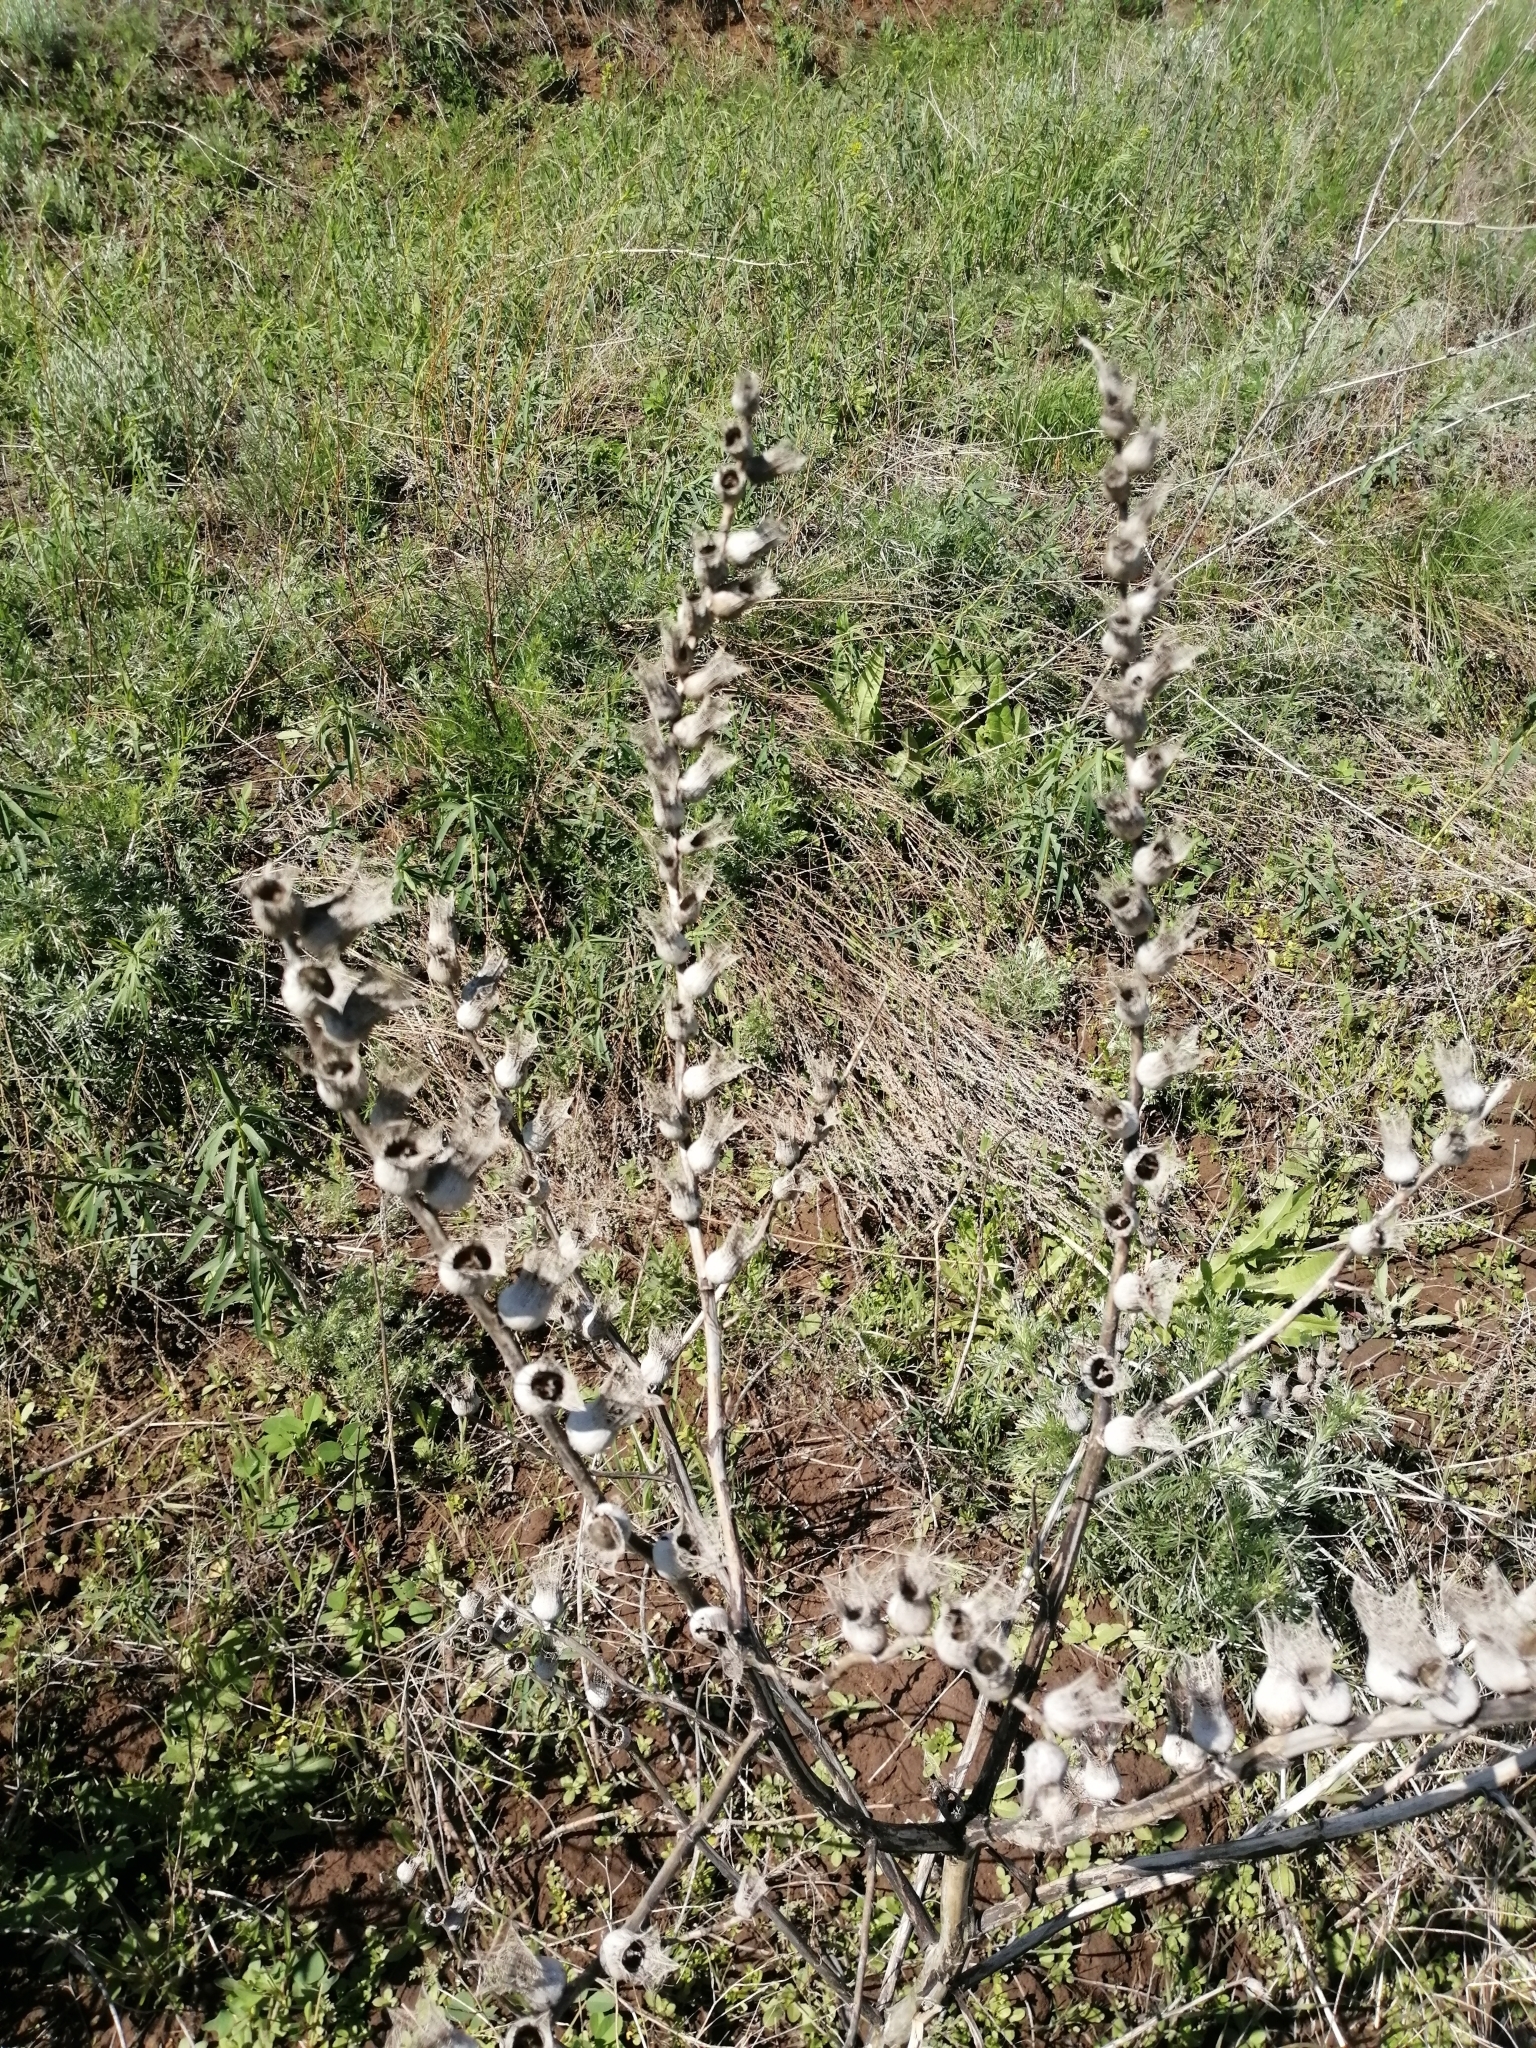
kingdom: Plantae
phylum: Tracheophyta
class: Magnoliopsida
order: Solanales
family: Solanaceae
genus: Hyoscyamus
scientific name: Hyoscyamus niger
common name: Henbane
